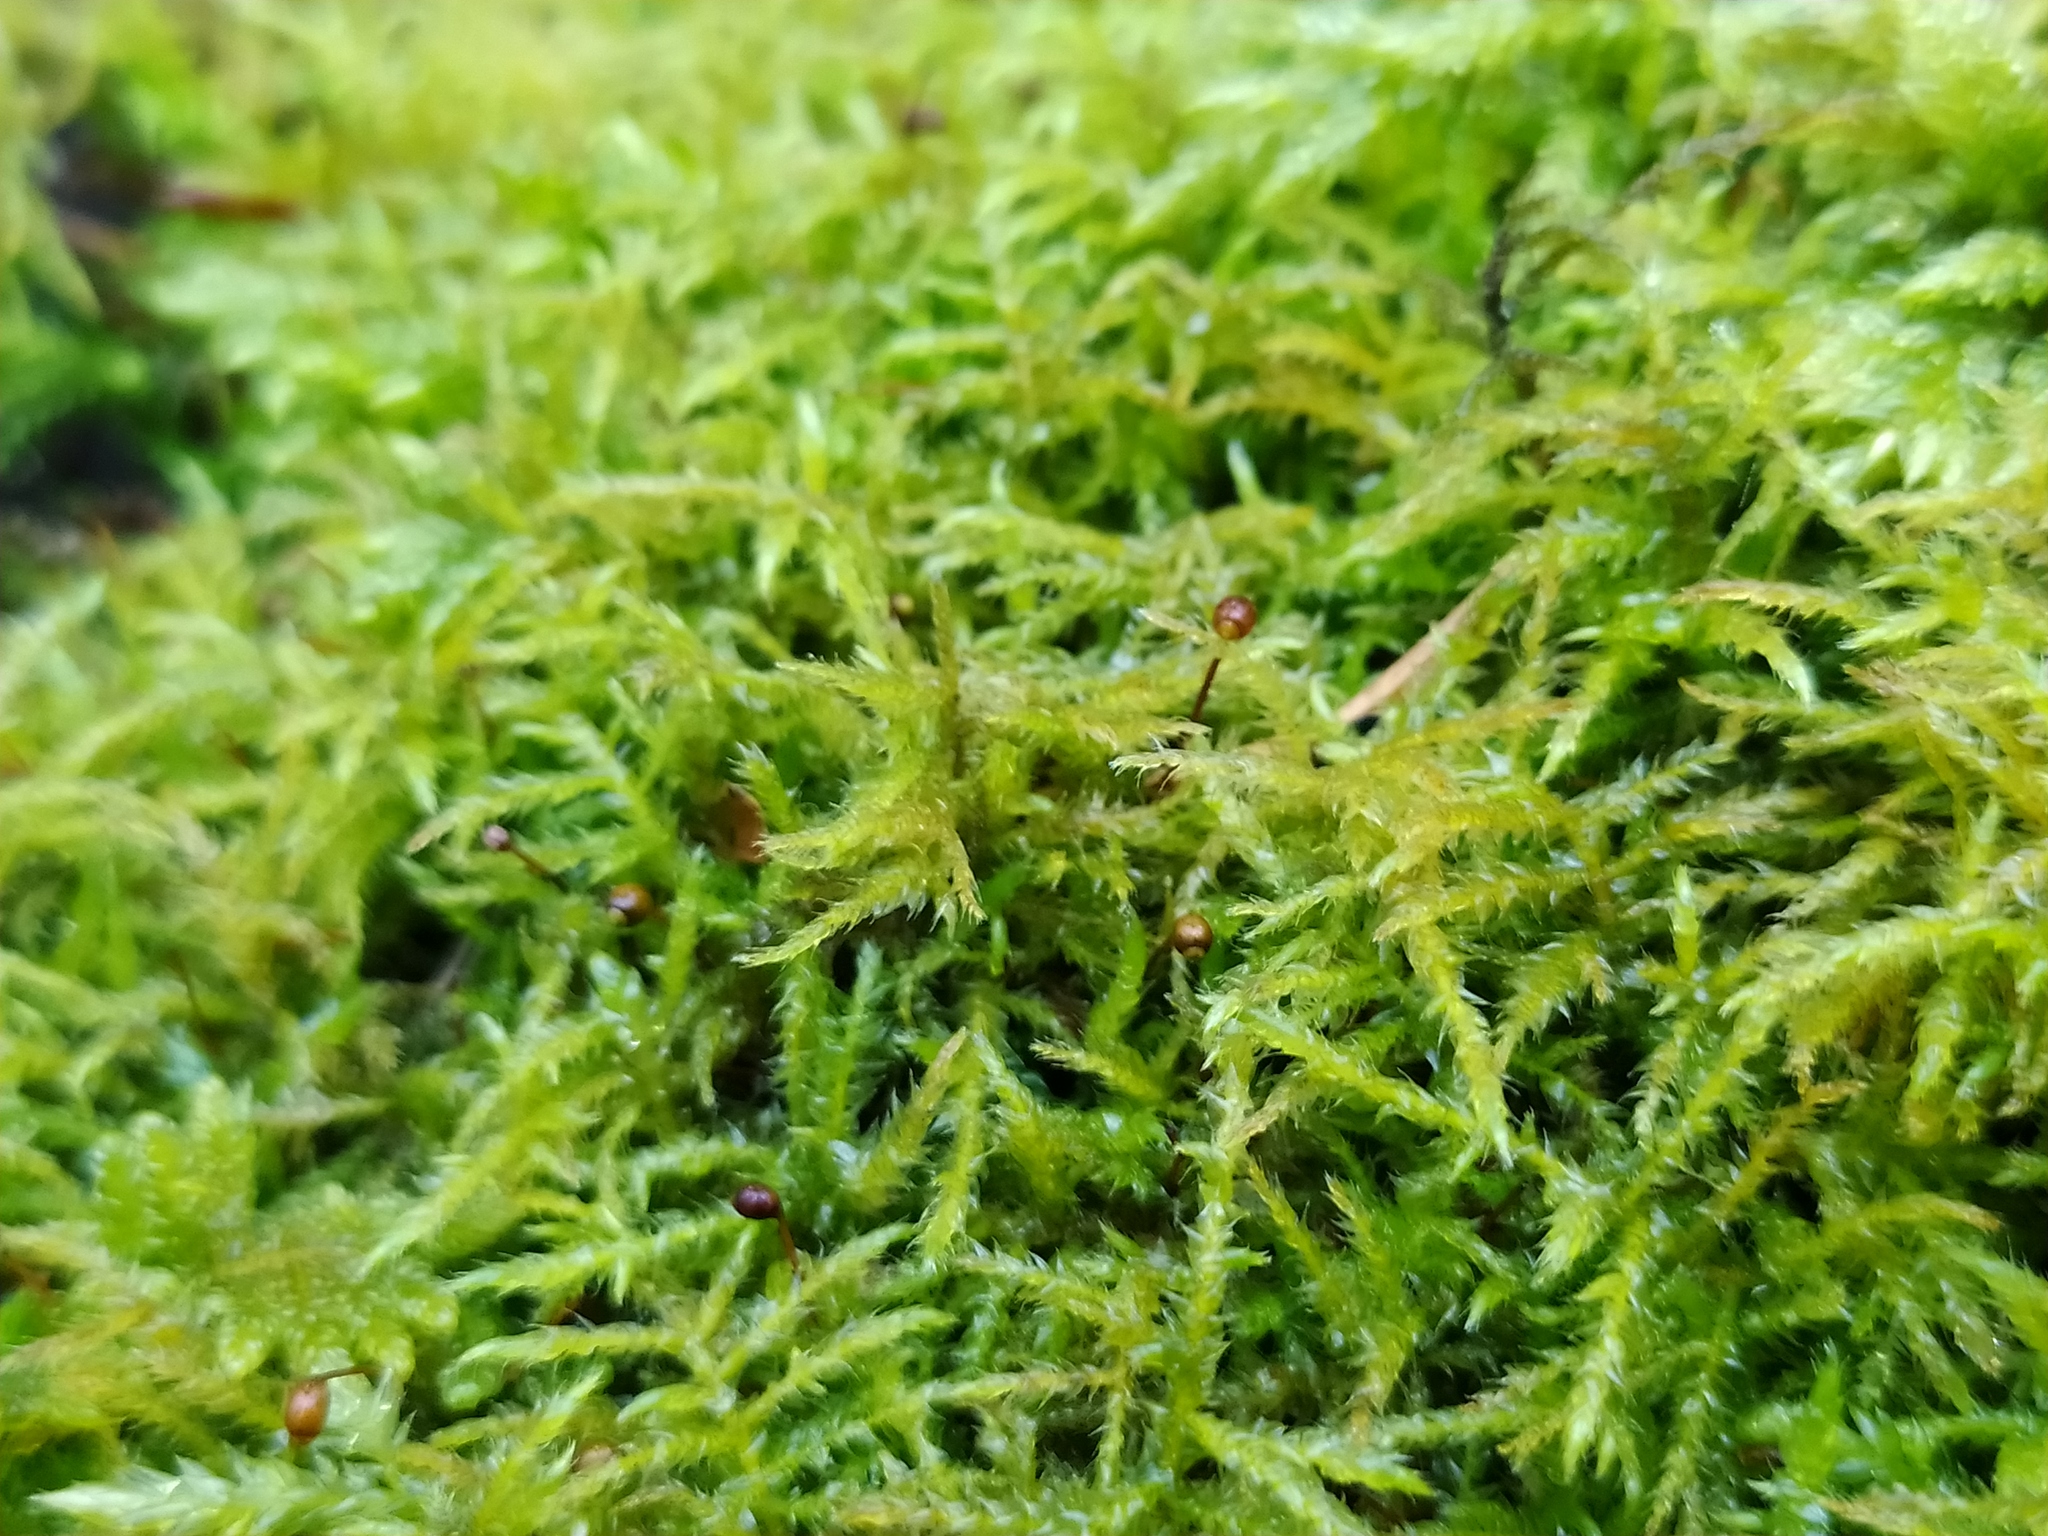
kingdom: Plantae
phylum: Bryophyta
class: Bryopsida
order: Hypnales
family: Brachytheciaceae
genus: Sciuro-hypnum
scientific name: Sciuro-hypnum starkei
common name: Starke's feather-moss
